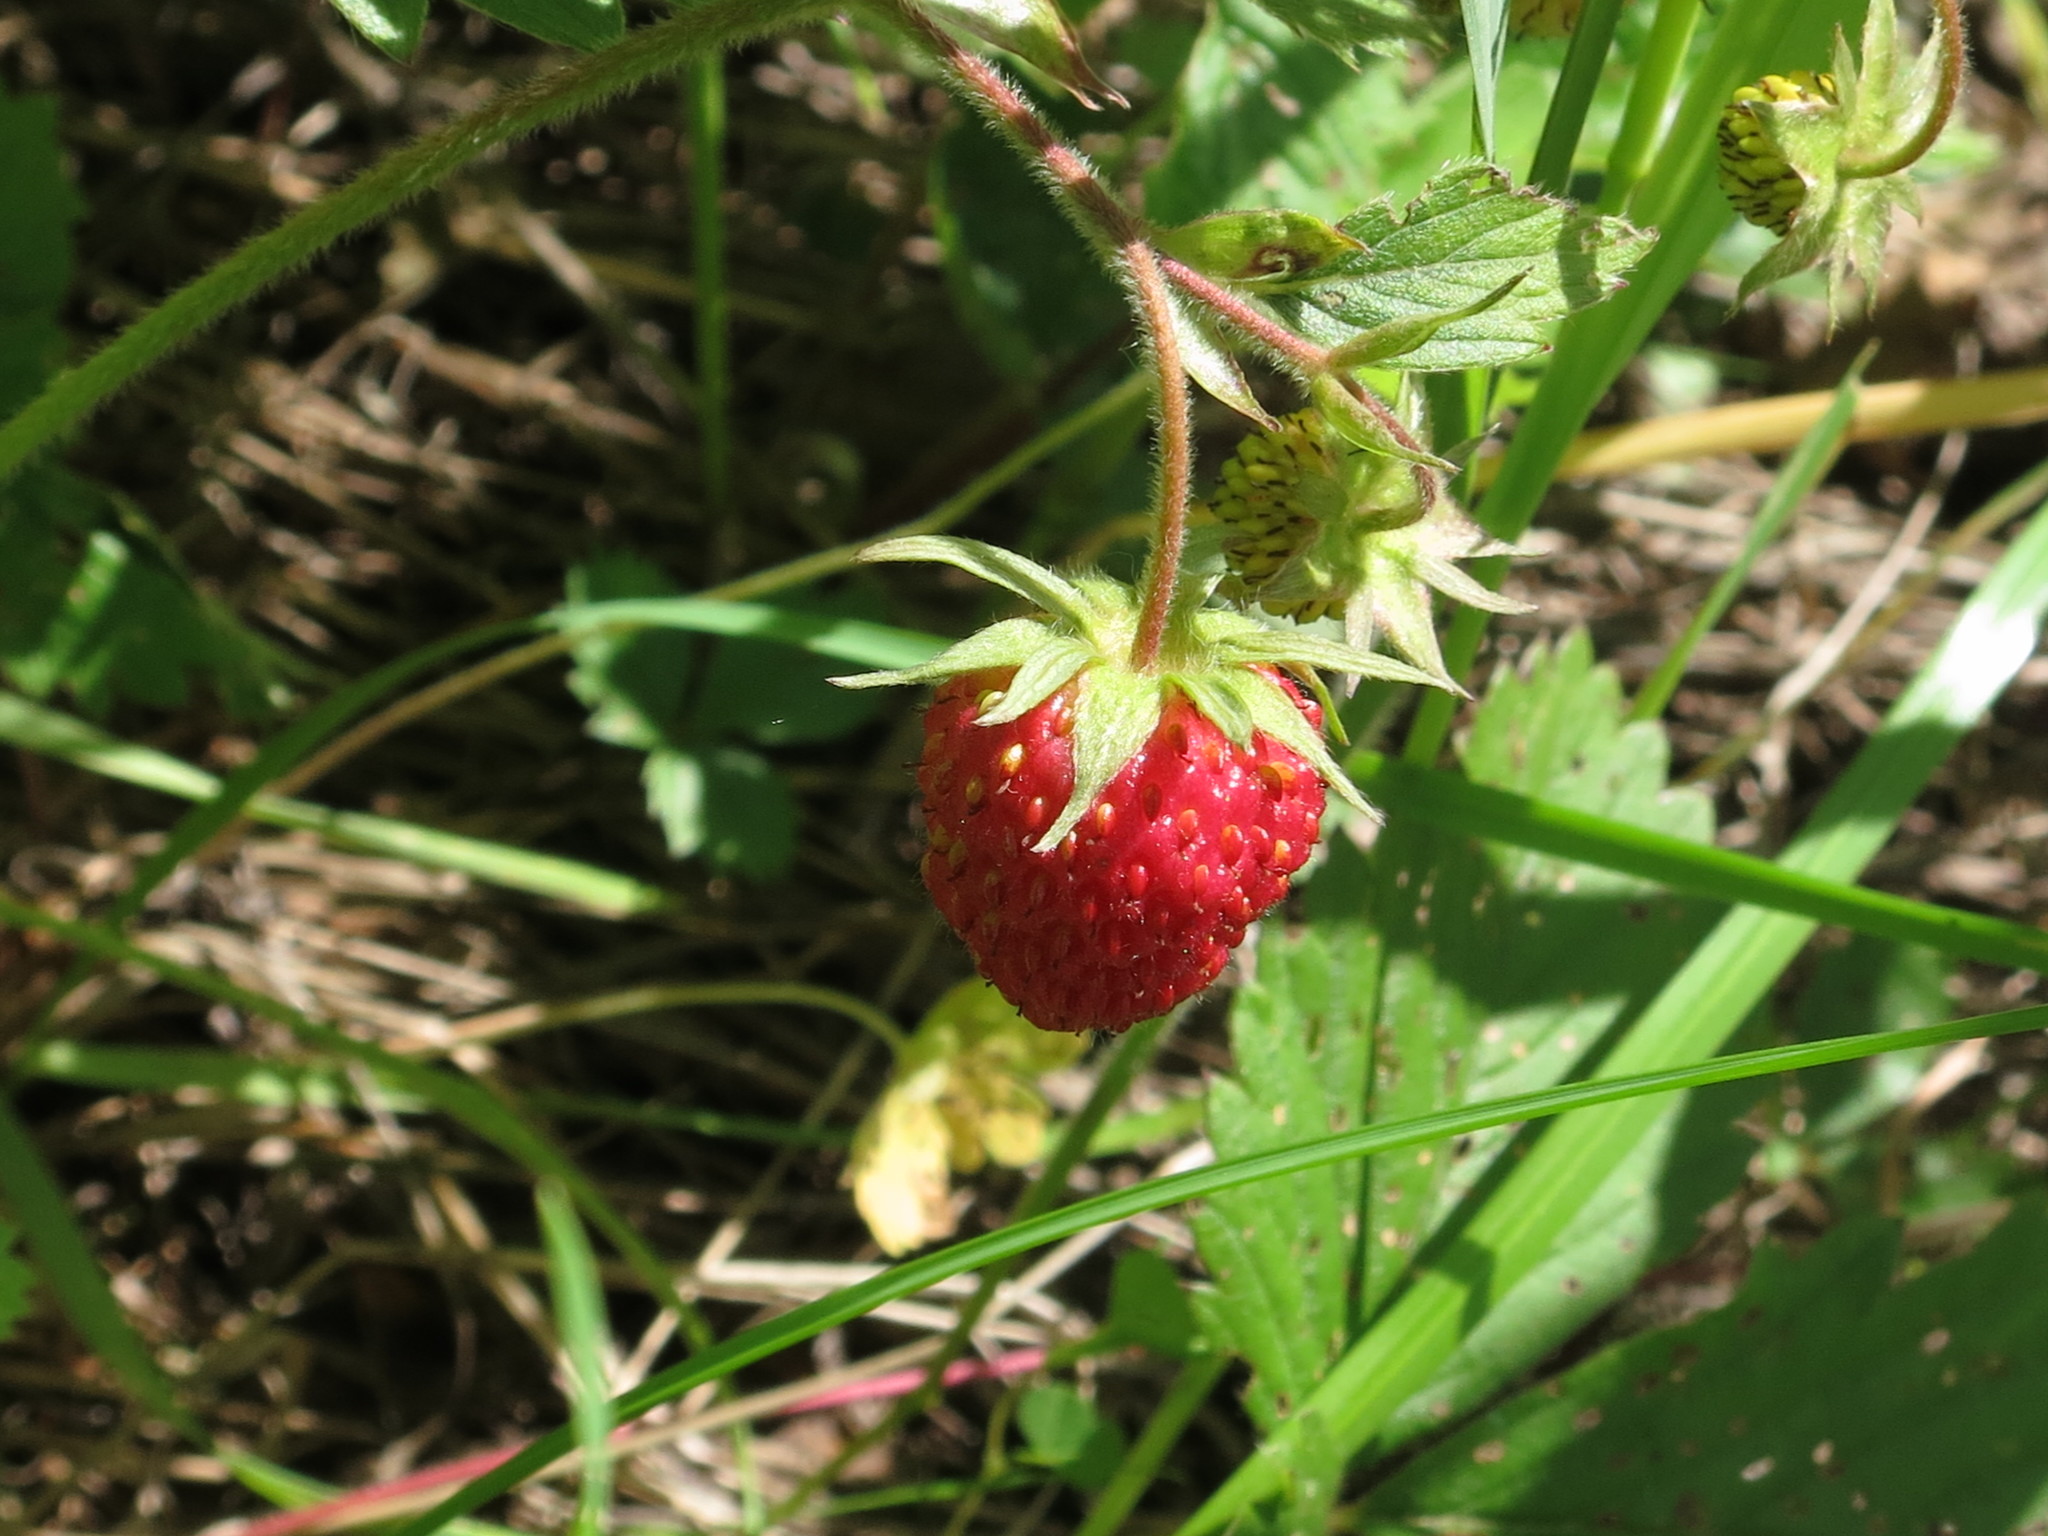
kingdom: Plantae
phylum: Tracheophyta
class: Magnoliopsida
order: Rosales
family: Rosaceae
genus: Fragaria
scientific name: Fragaria orientalis
